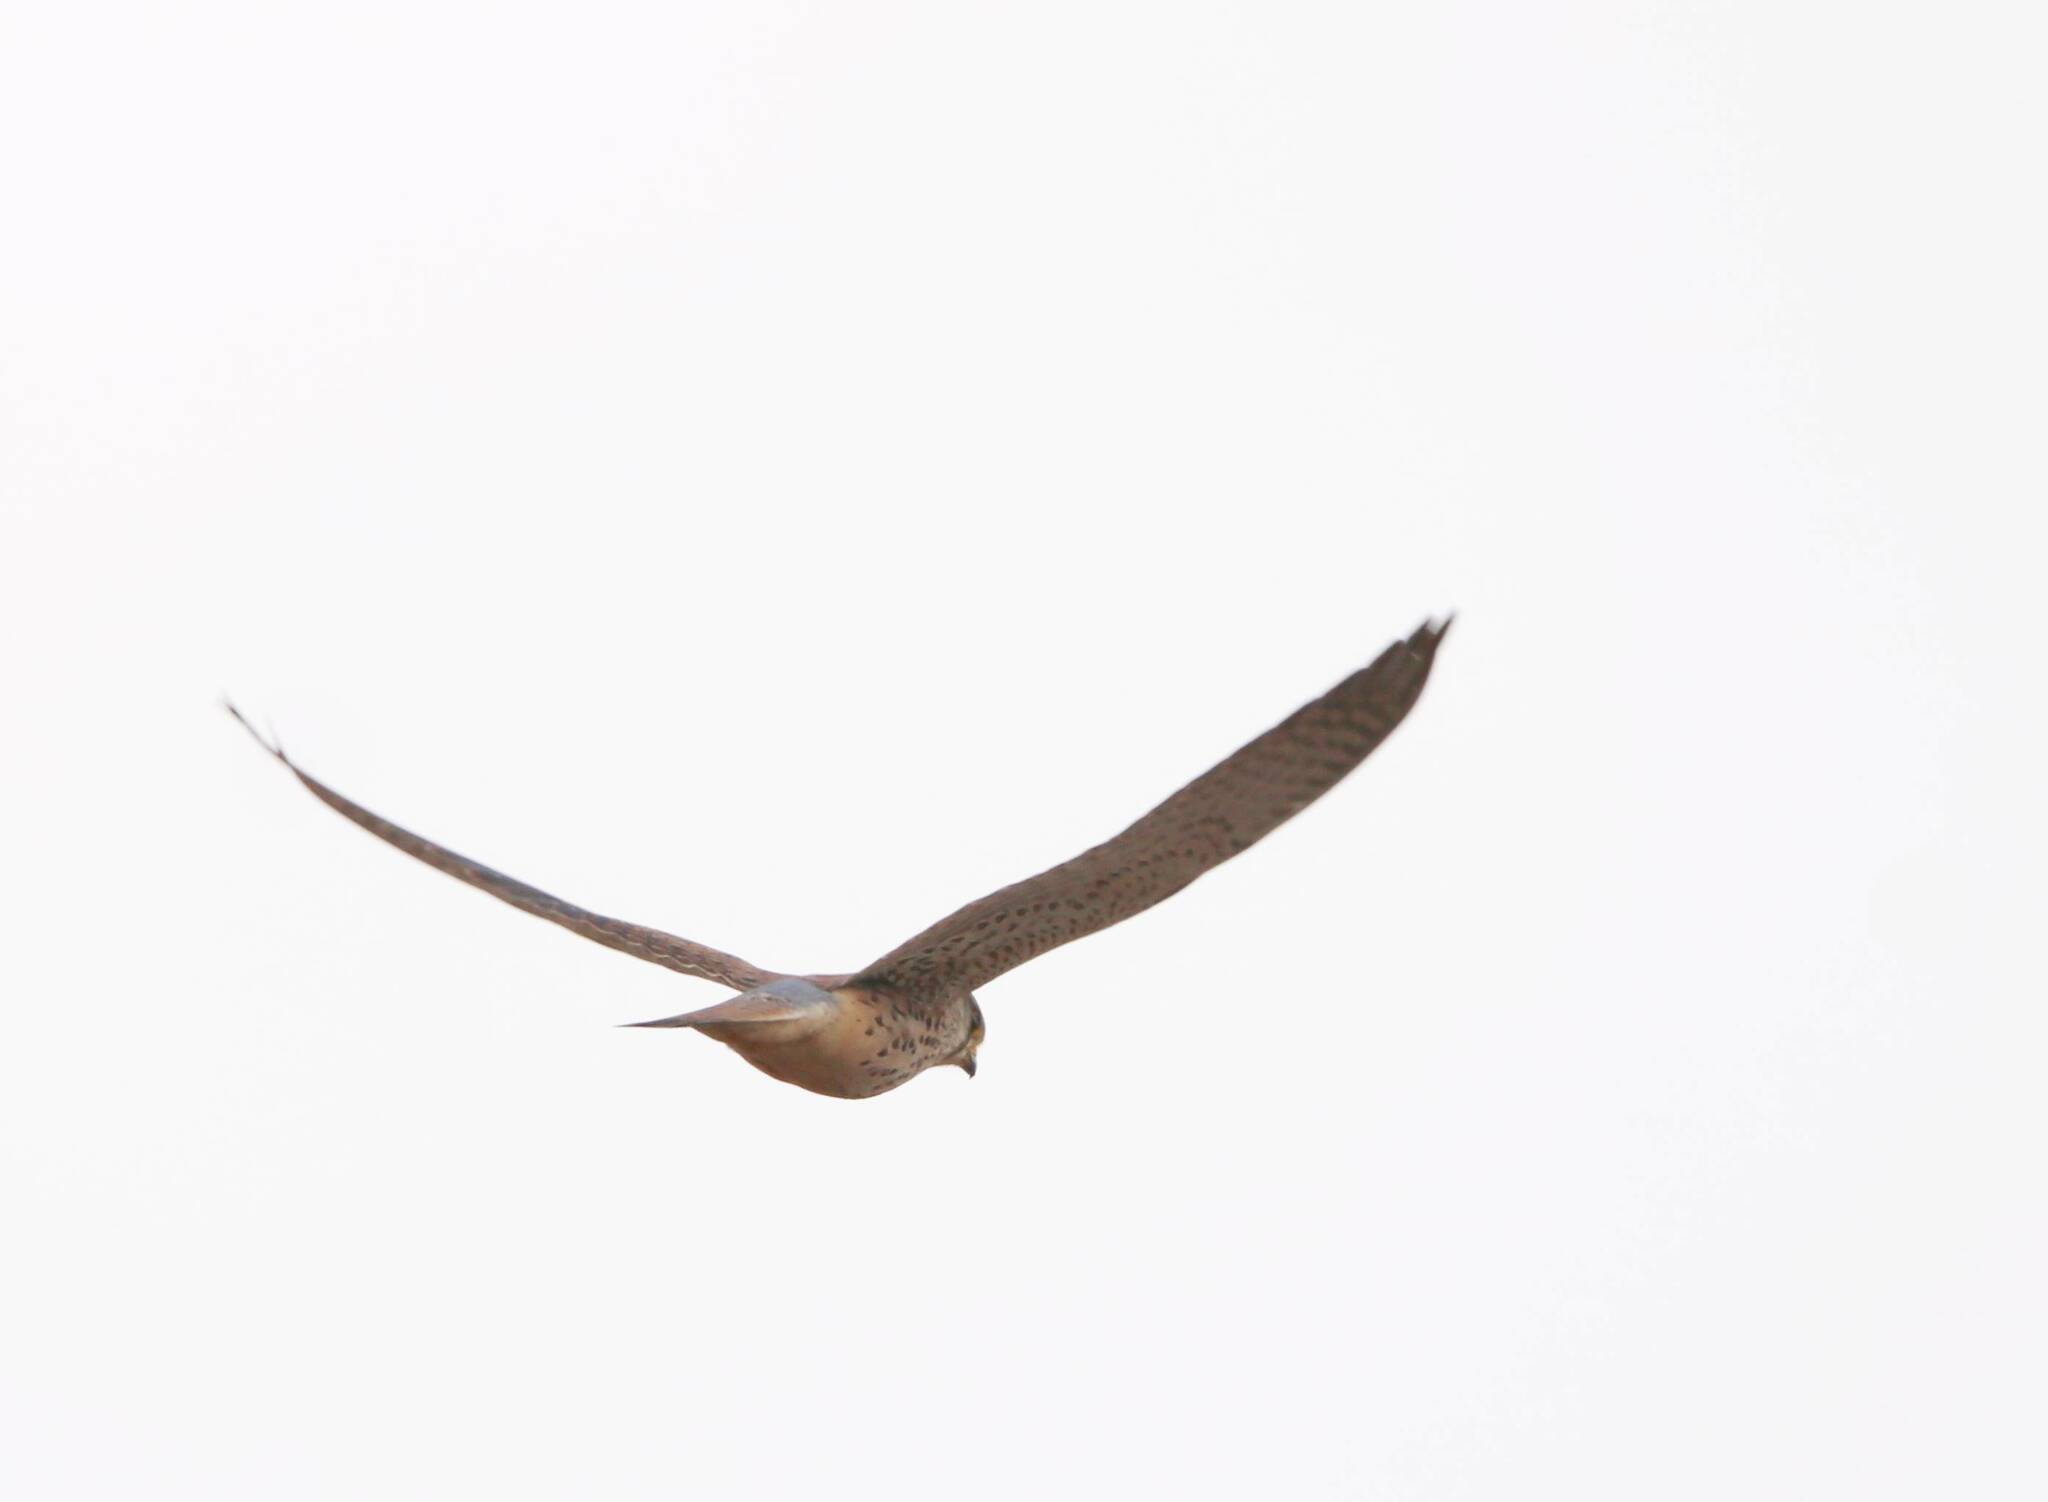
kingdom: Animalia
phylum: Chordata
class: Aves
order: Falconiformes
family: Falconidae
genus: Falco
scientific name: Falco naumanni
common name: Lesser kestrel
